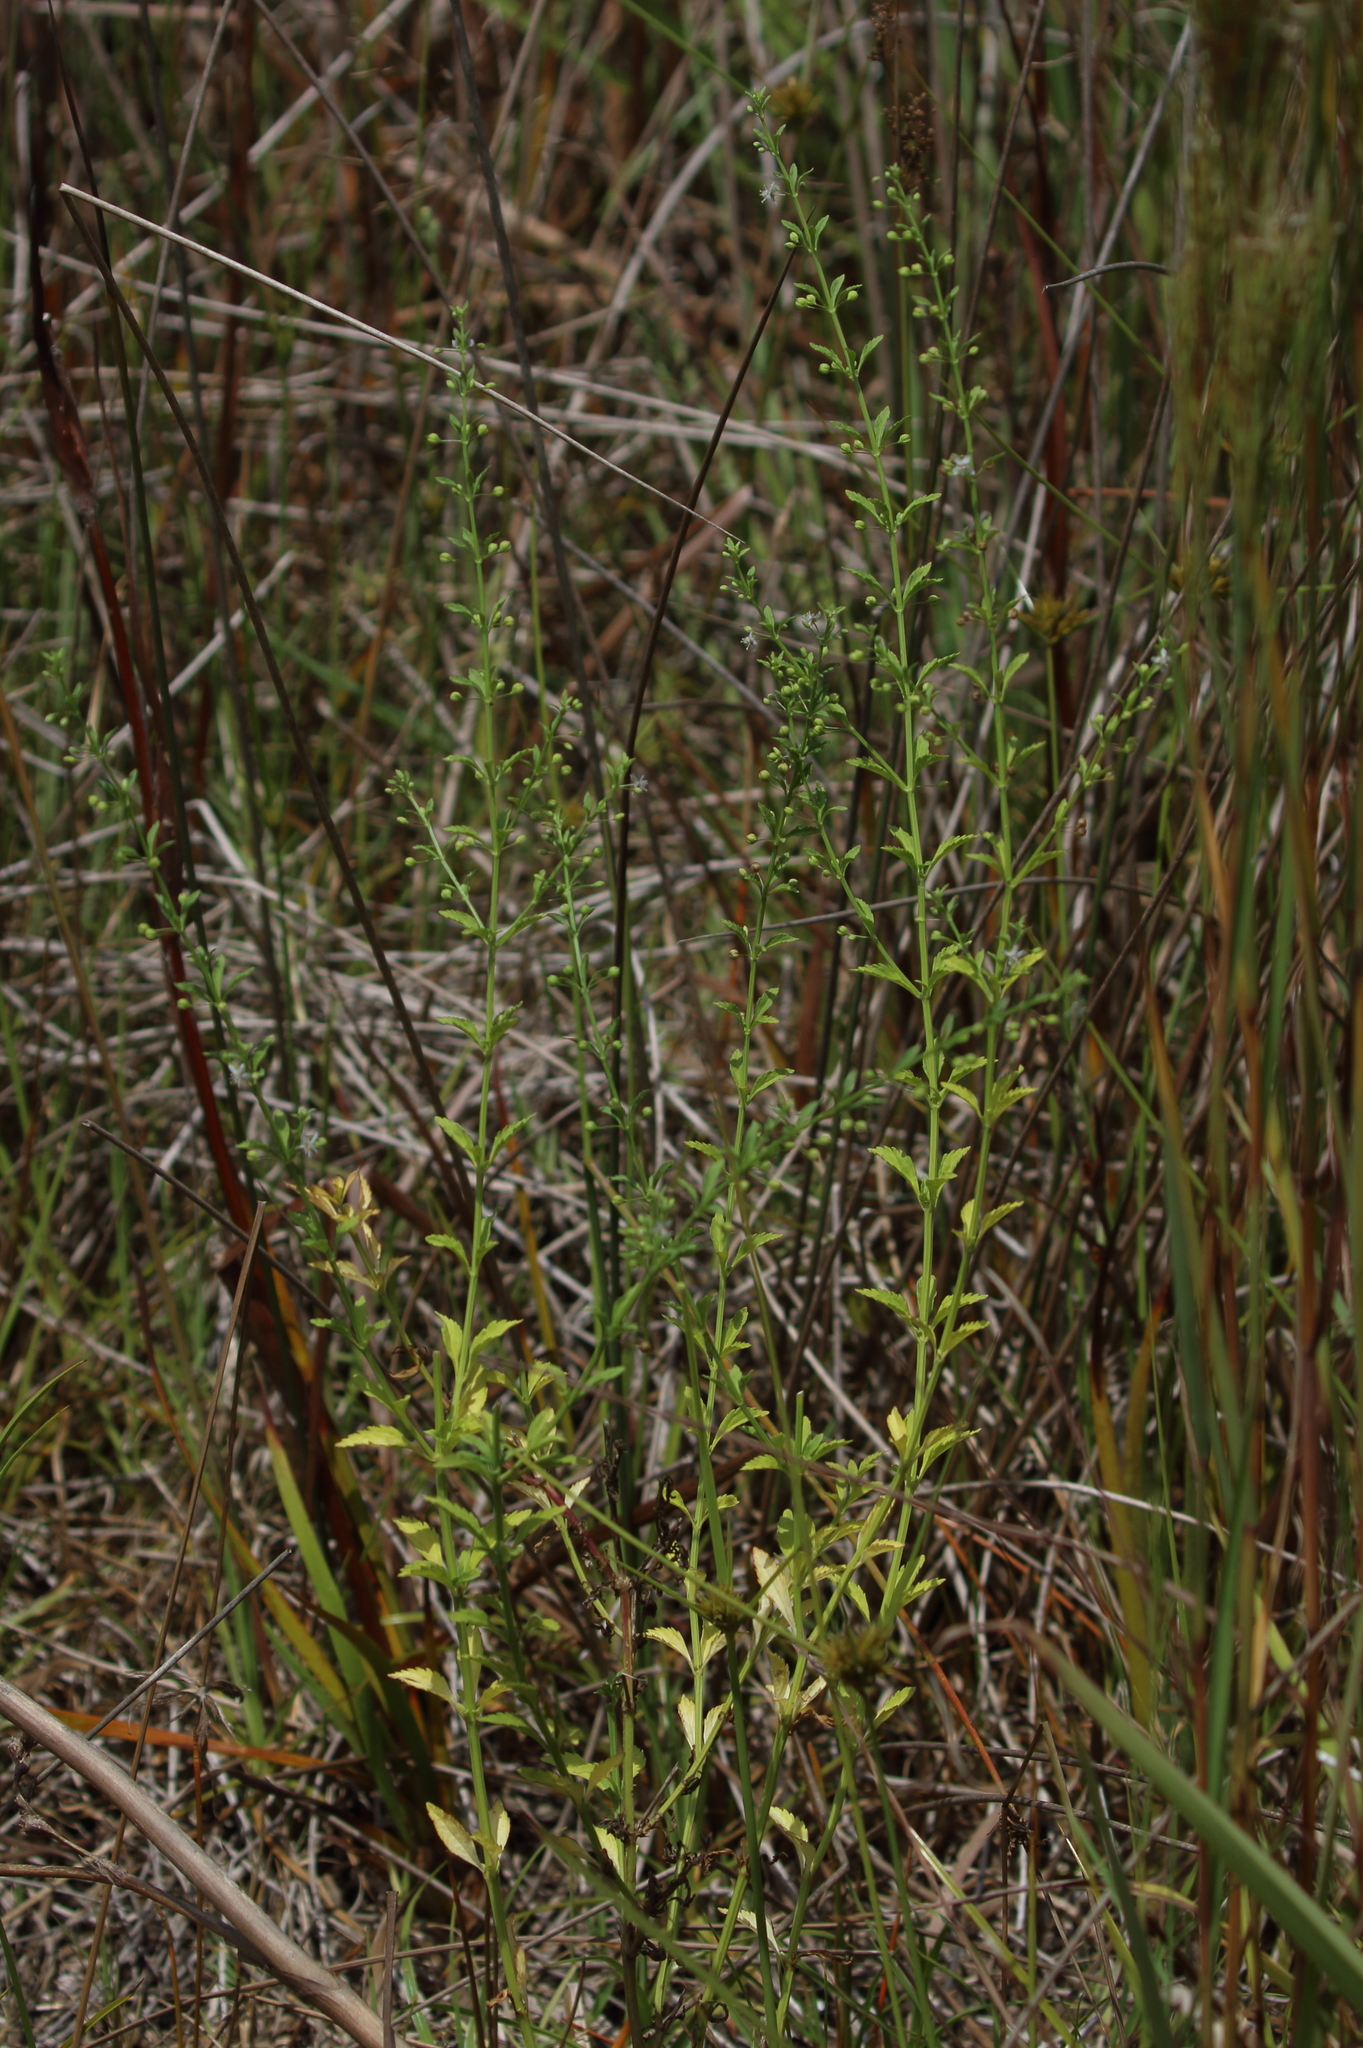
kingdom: Plantae
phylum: Tracheophyta
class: Magnoliopsida
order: Lamiales
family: Plantaginaceae
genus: Scoparia
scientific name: Scoparia dulcis
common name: Scoparia-weed
